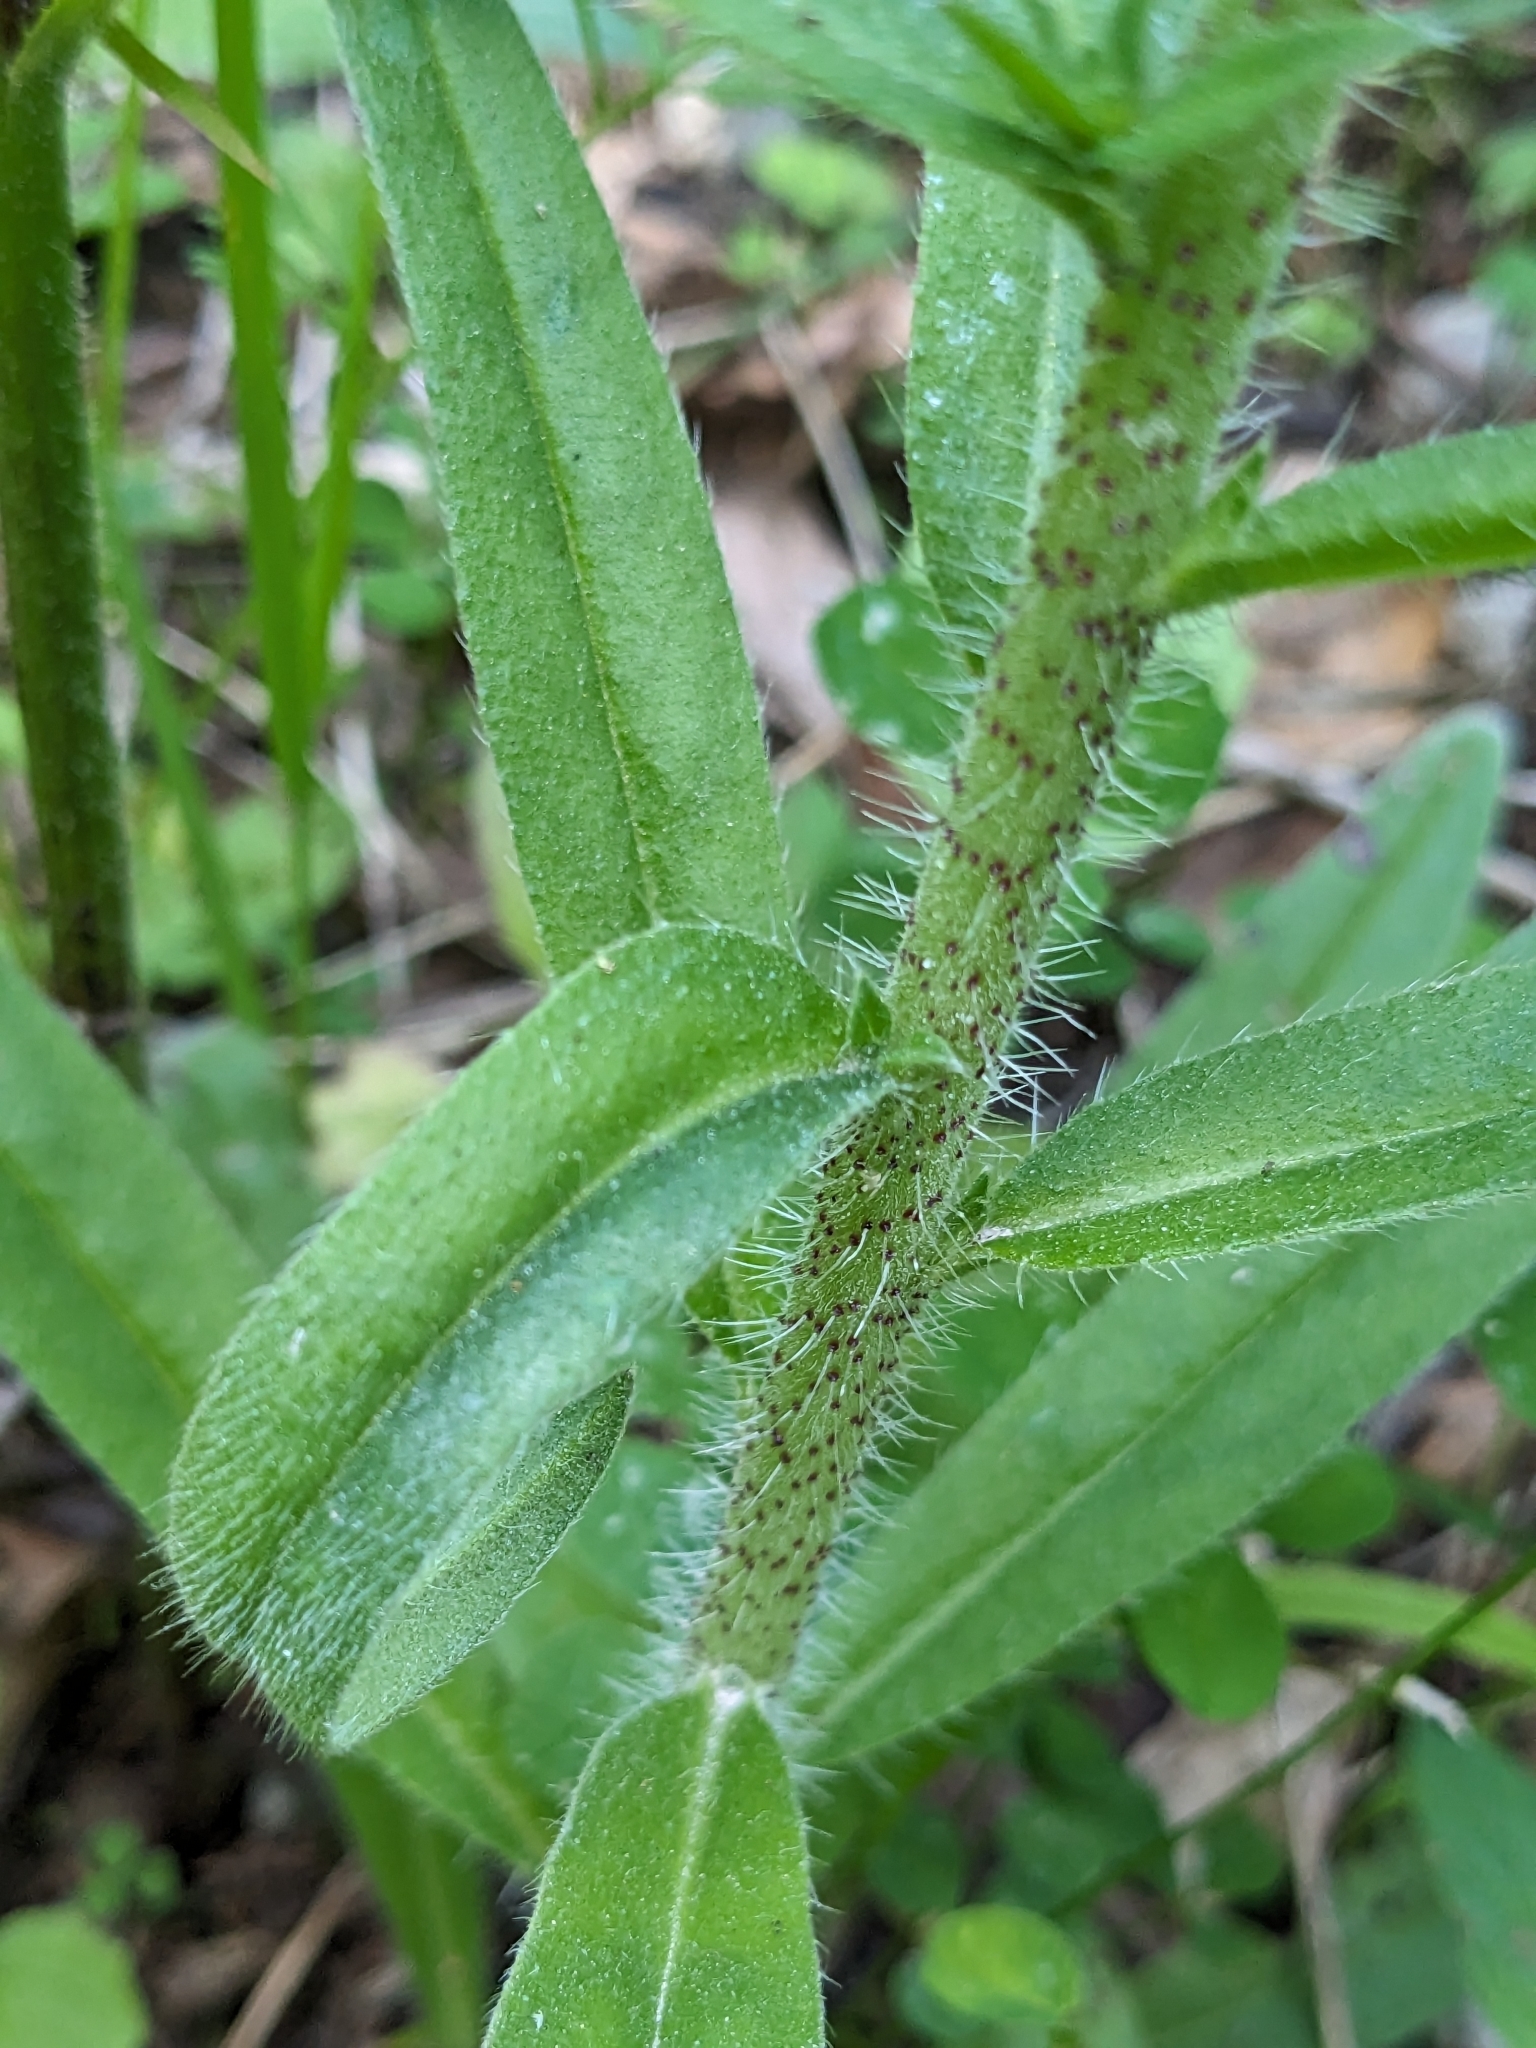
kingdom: Plantae
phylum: Tracheophyta
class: Magnoliopsida
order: Boraginales
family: Boraginaceae
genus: Echium
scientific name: Echium vulgare
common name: Common viper's bugloss
